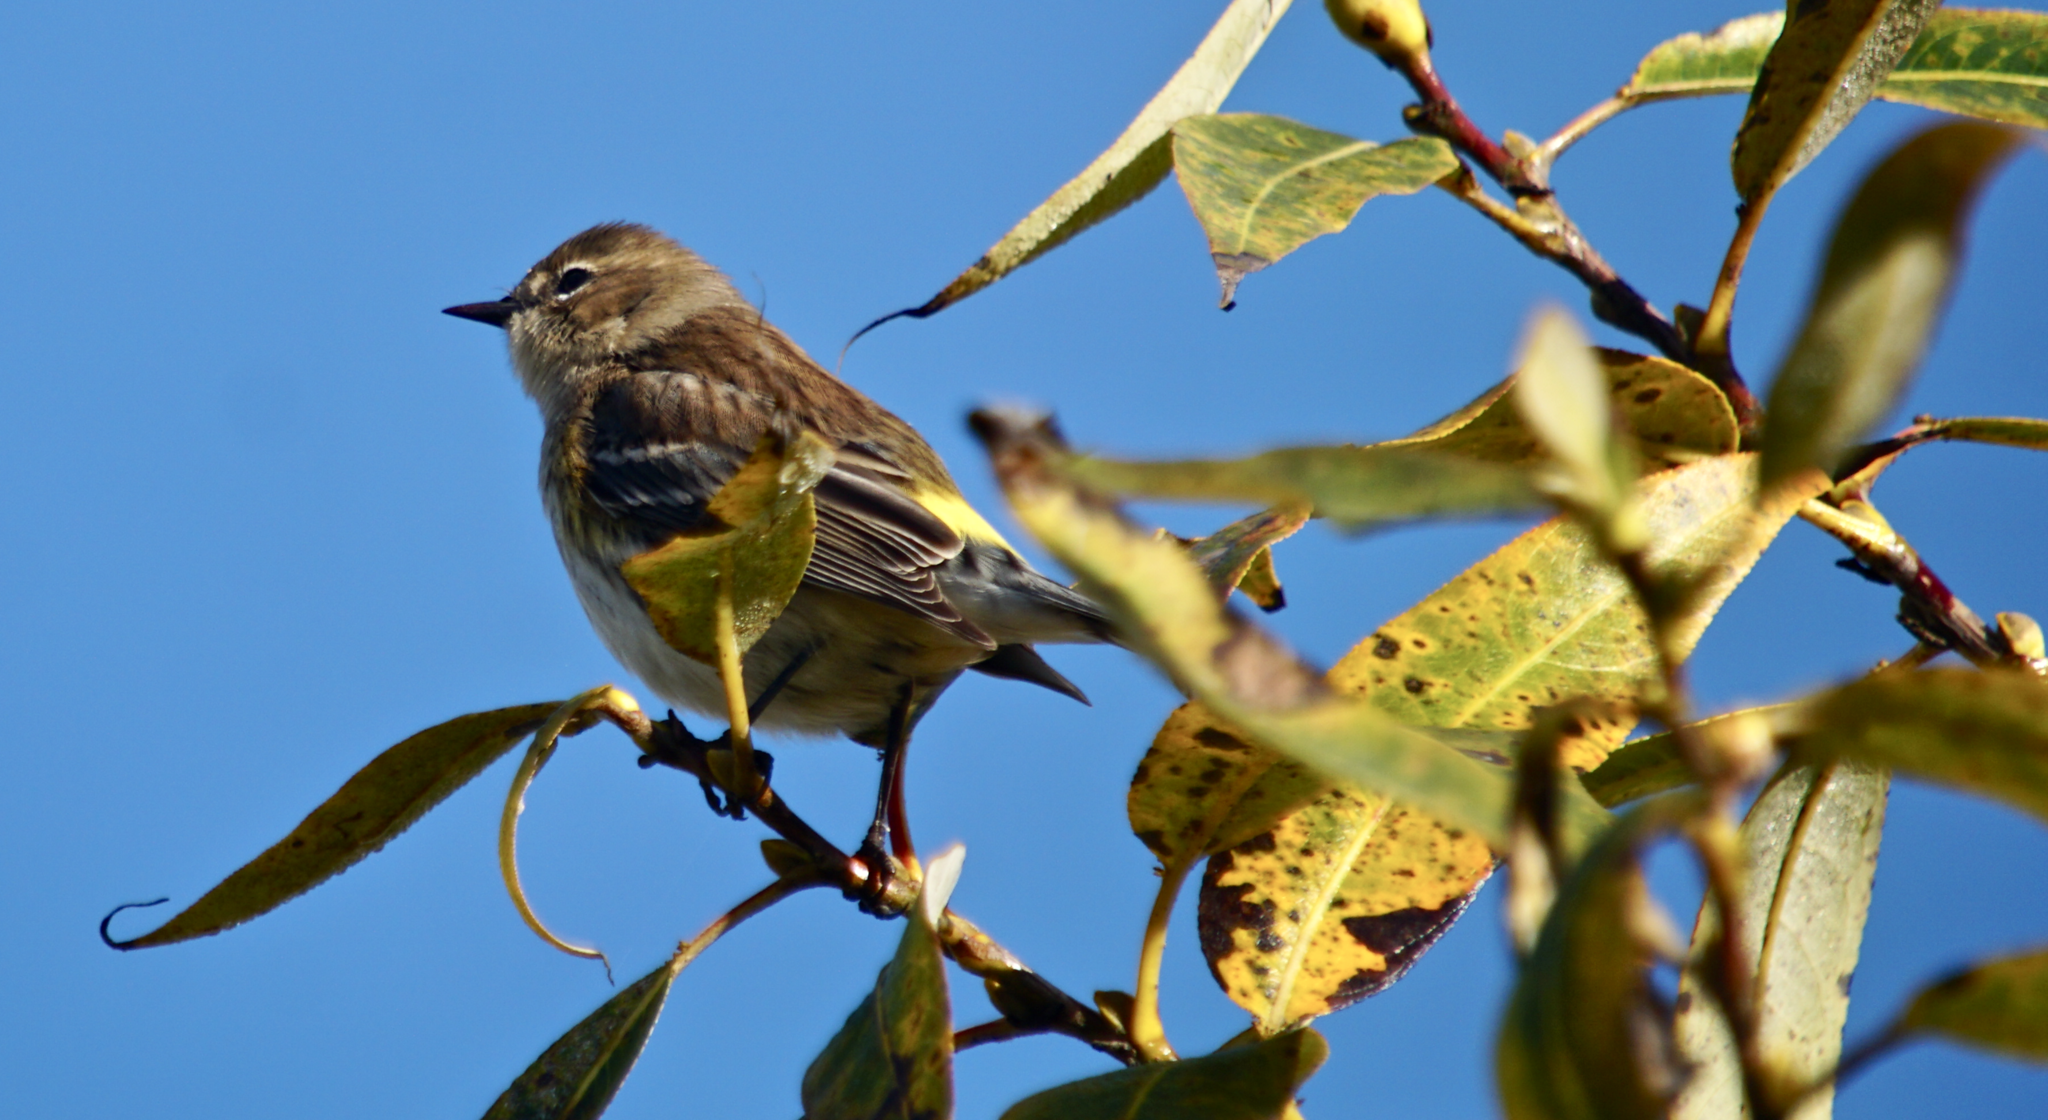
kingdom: Animalia
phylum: Chordata
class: Aves
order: Passeriformes
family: Parulidae
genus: Setophaga
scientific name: Setophaga coronata
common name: Myrtle warbler
